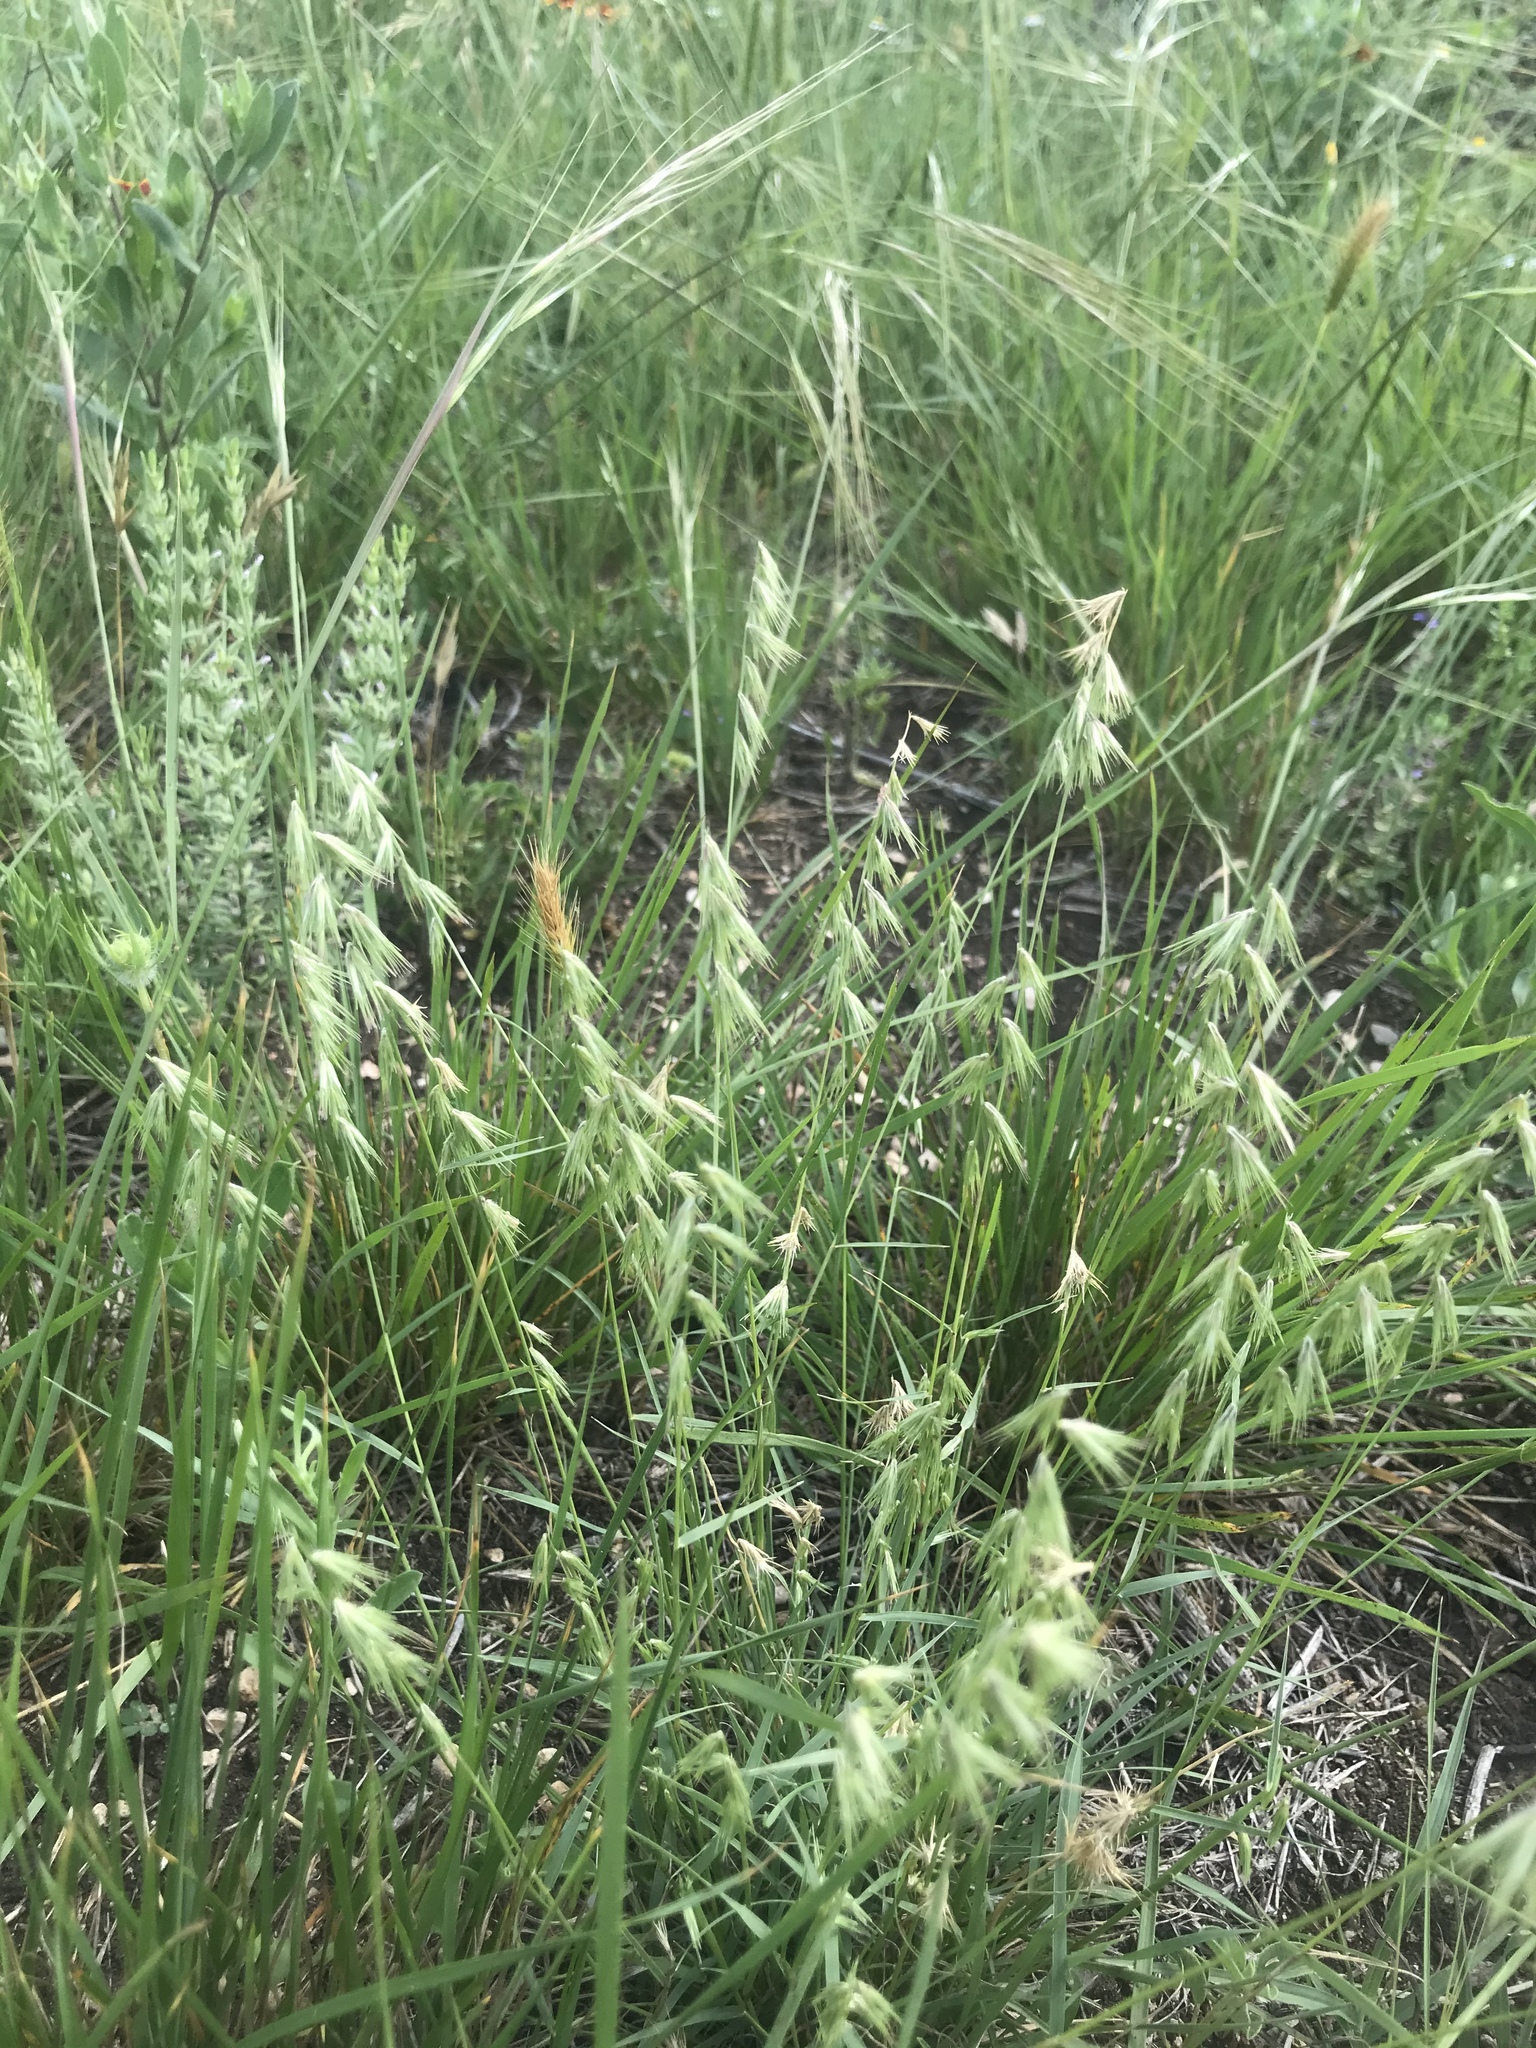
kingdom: Plantae
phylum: Tracheophyta
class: Liliopsida
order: Poales
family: Poaceae
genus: Bouteloua
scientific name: Bouteloua rigidiseta
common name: Texas grama
